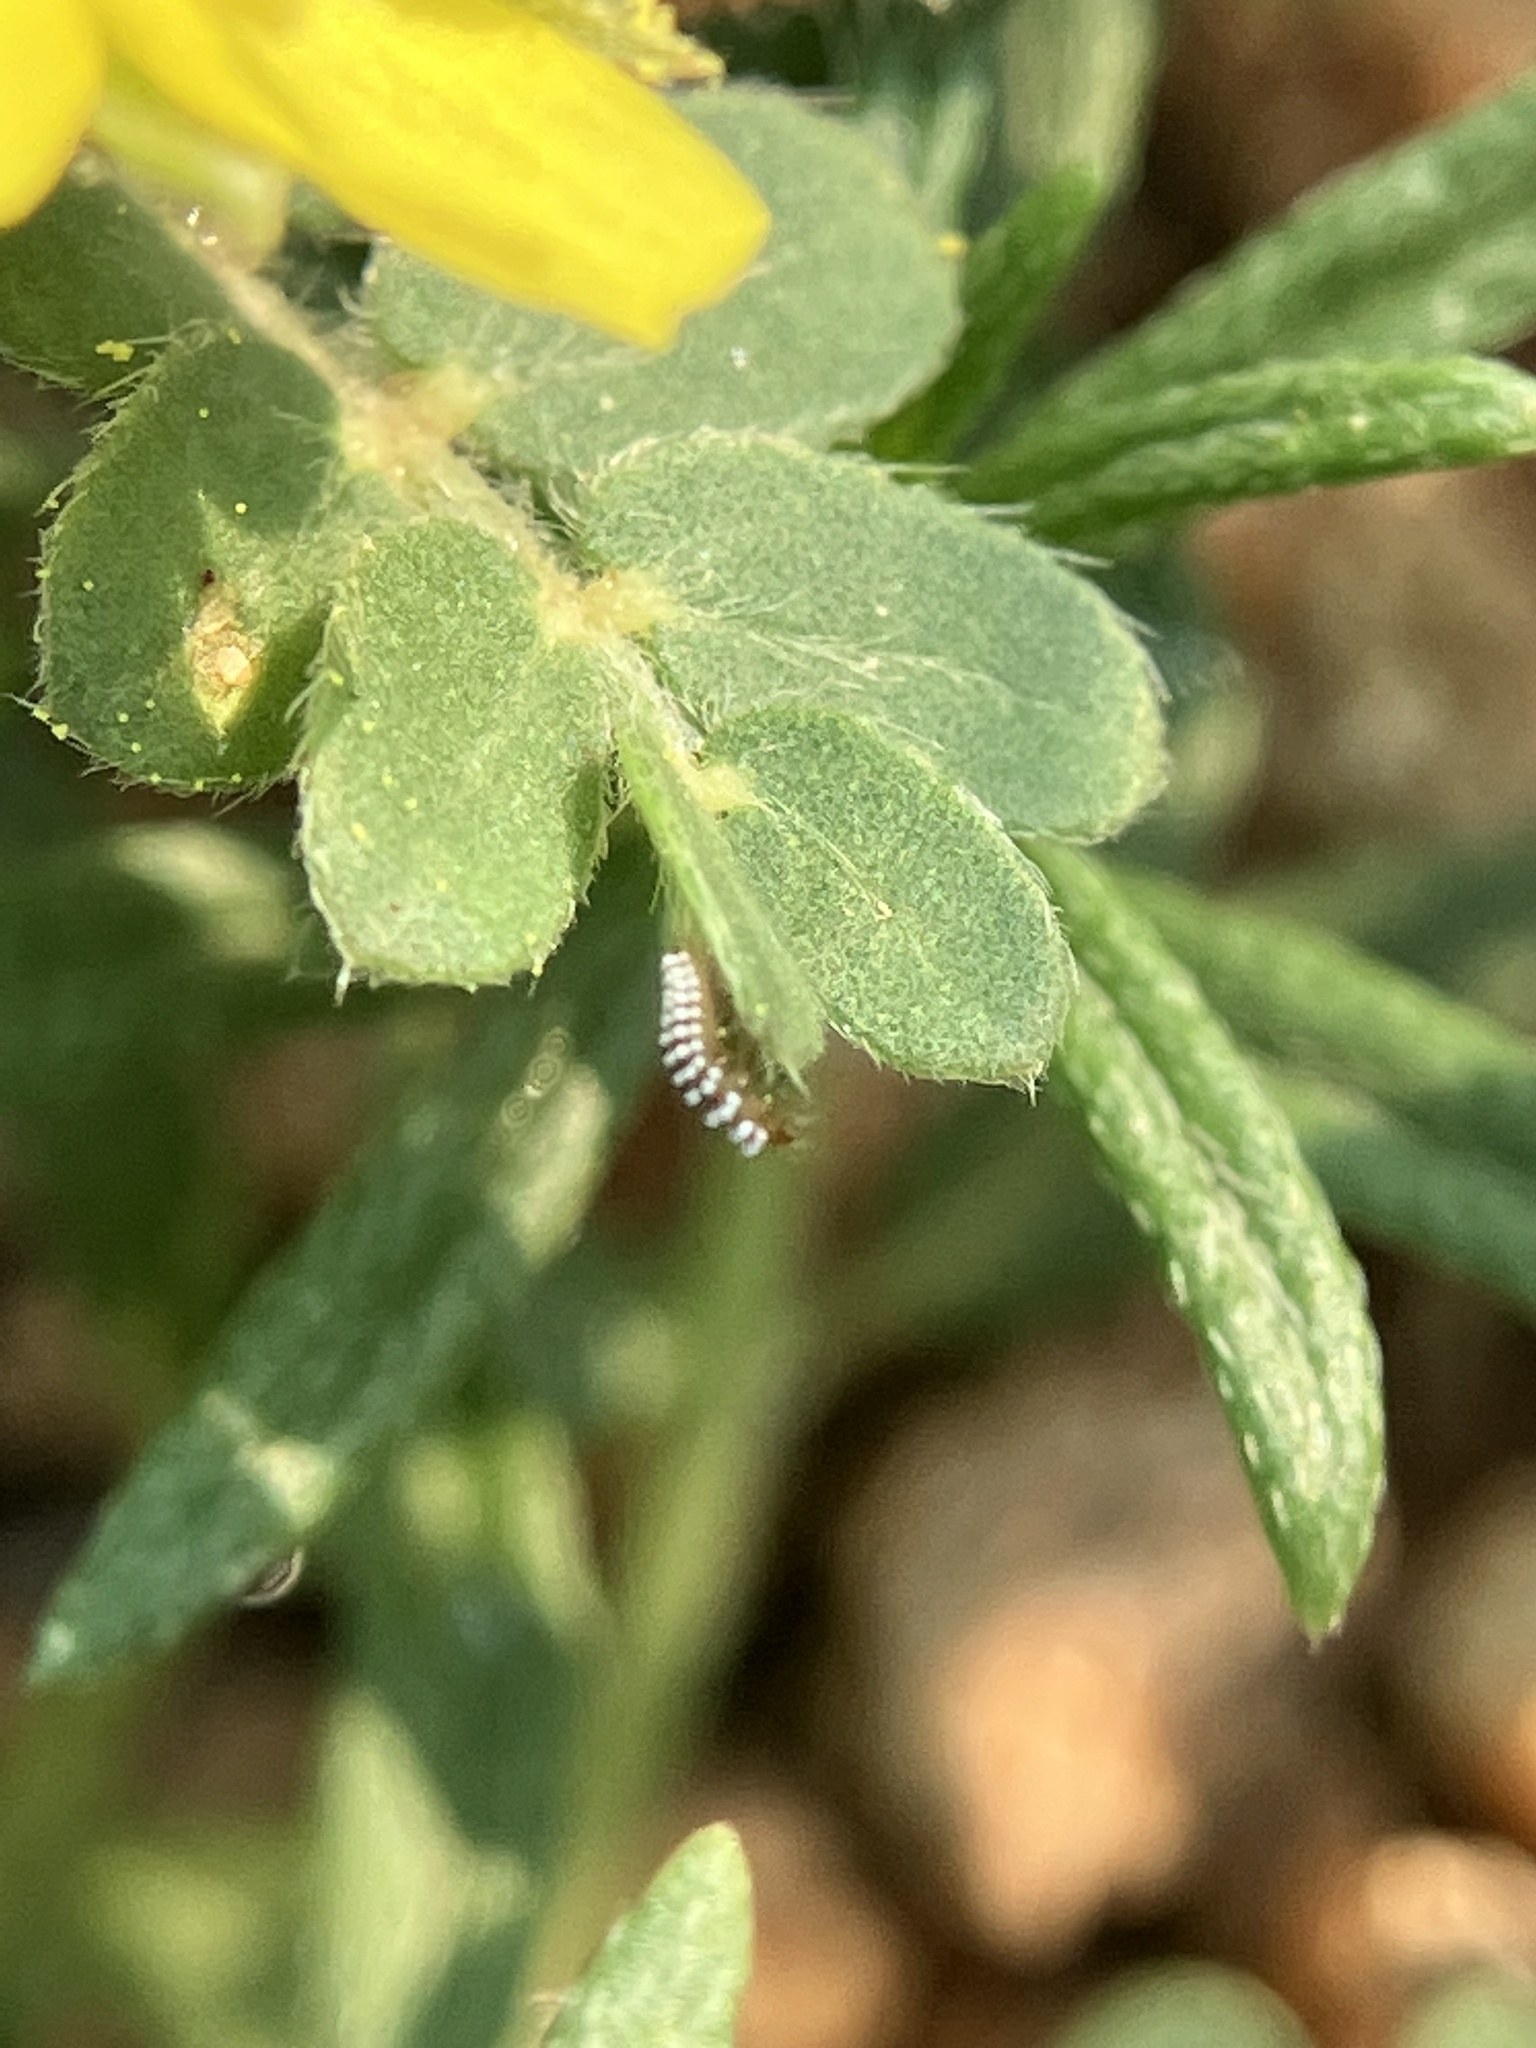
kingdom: Plantae
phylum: Tracheophyta
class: Magnoliopsida
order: Zygophyllales
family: Zygophyllaceae
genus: Tribulus
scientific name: Tribulus terrestris
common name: Puncturevine
